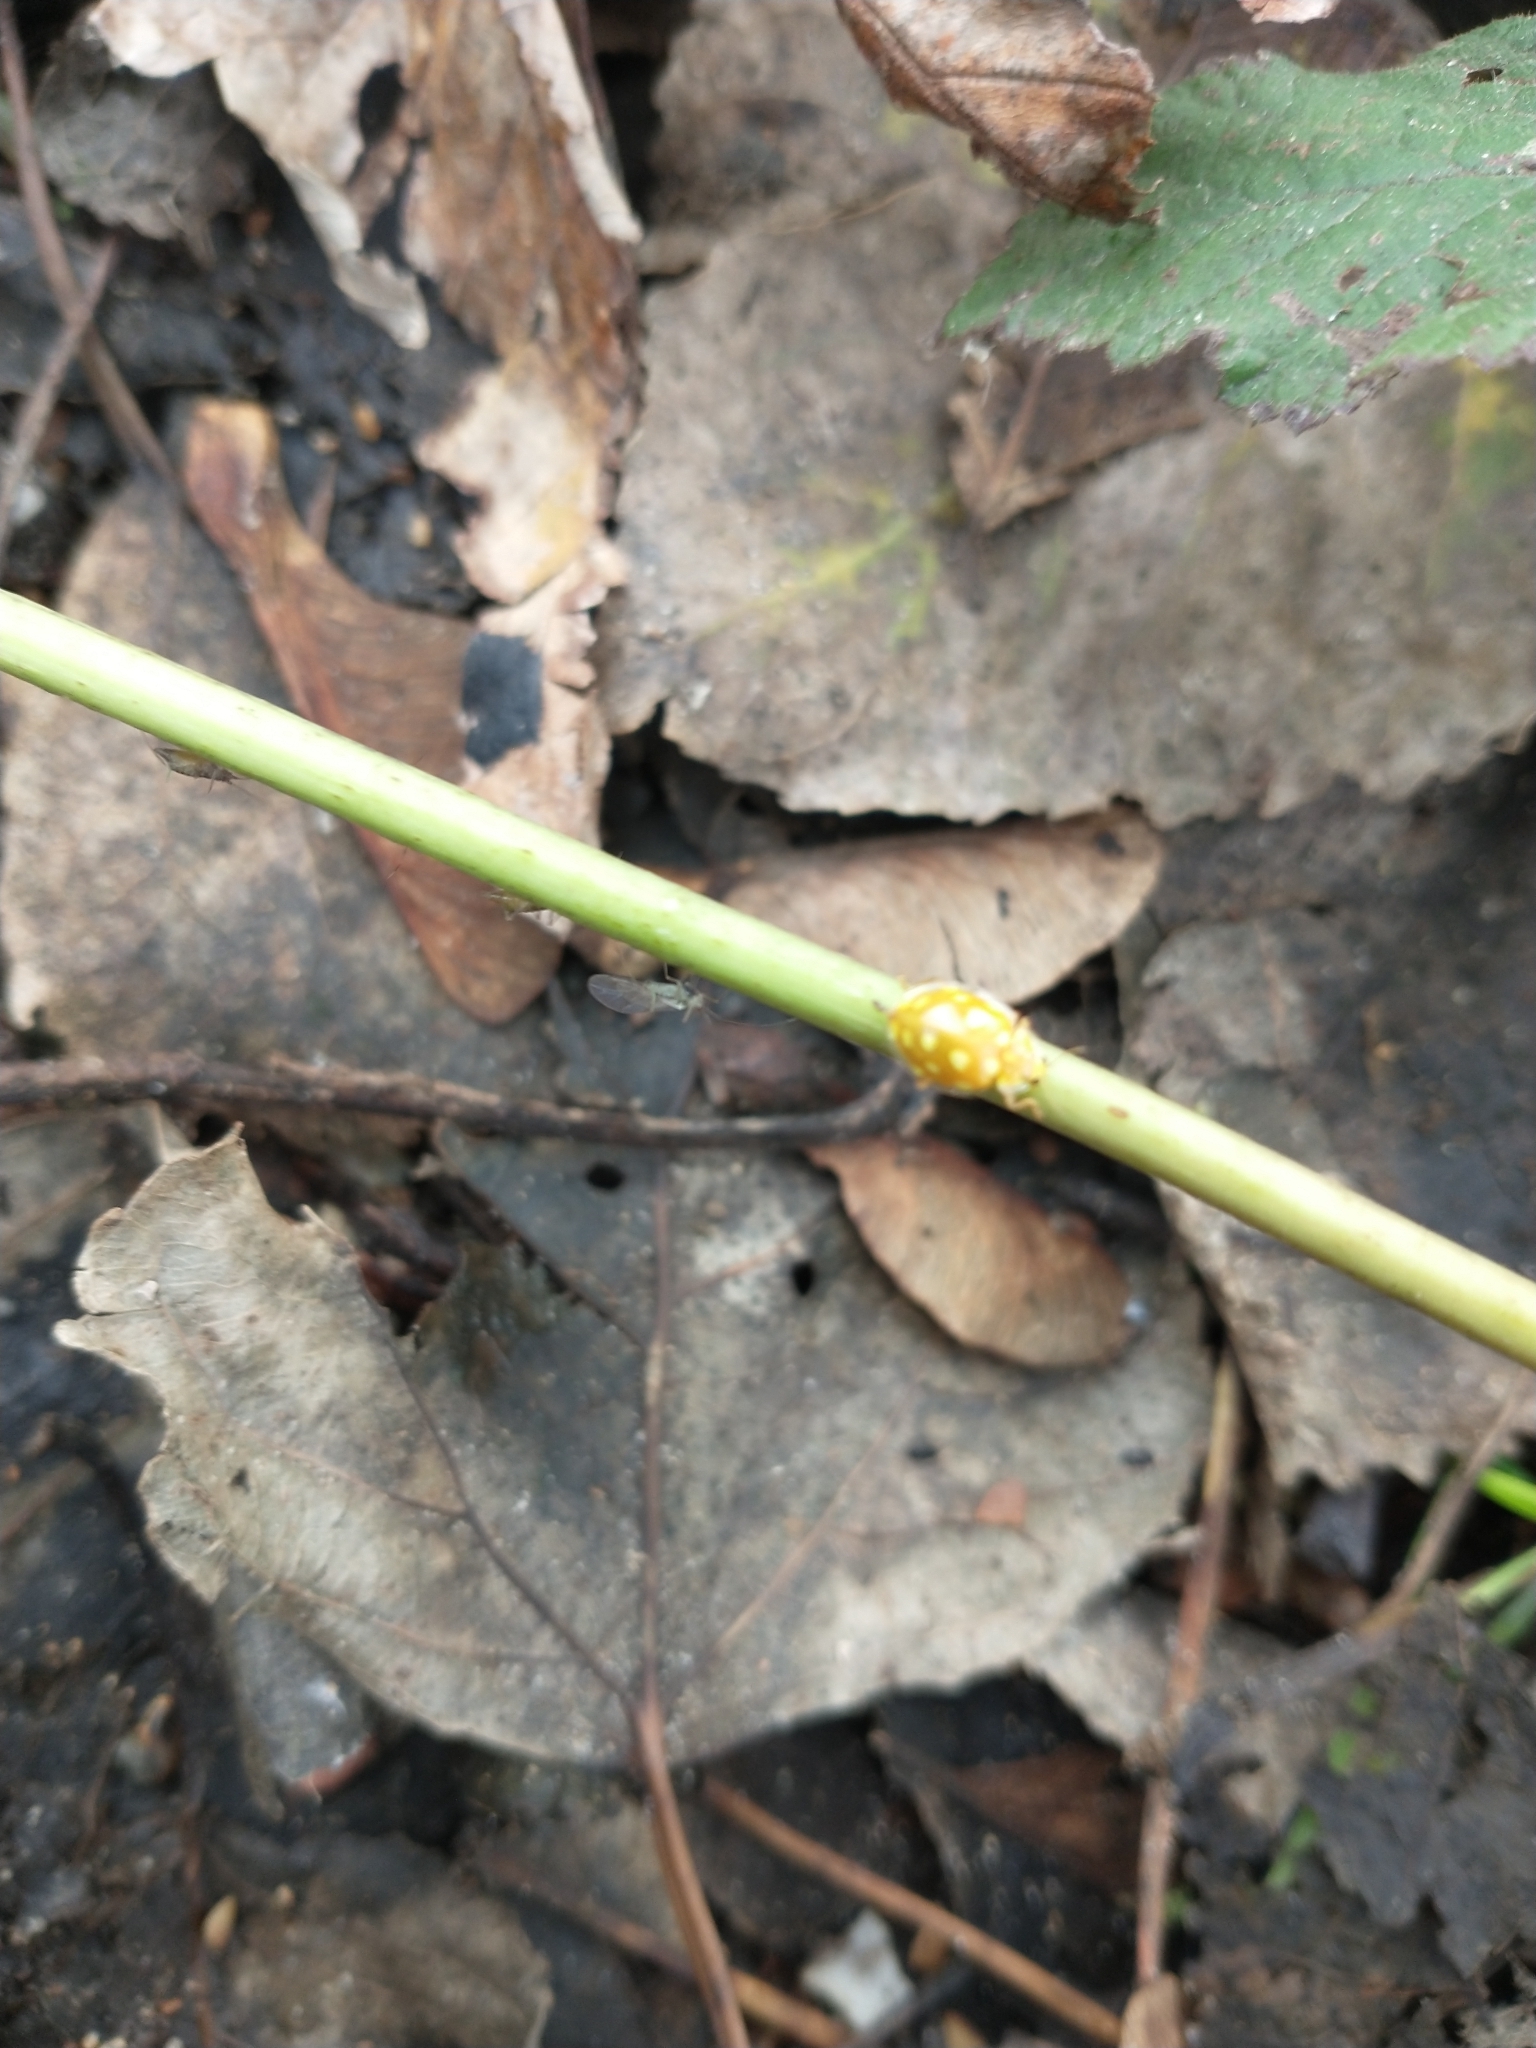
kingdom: Animalia
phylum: Arthropoda
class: Insecta
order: Coleoptera
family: Coccinellidae
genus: Halyzia
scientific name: Halyzia sedecimguttata
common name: Orange ladybird
